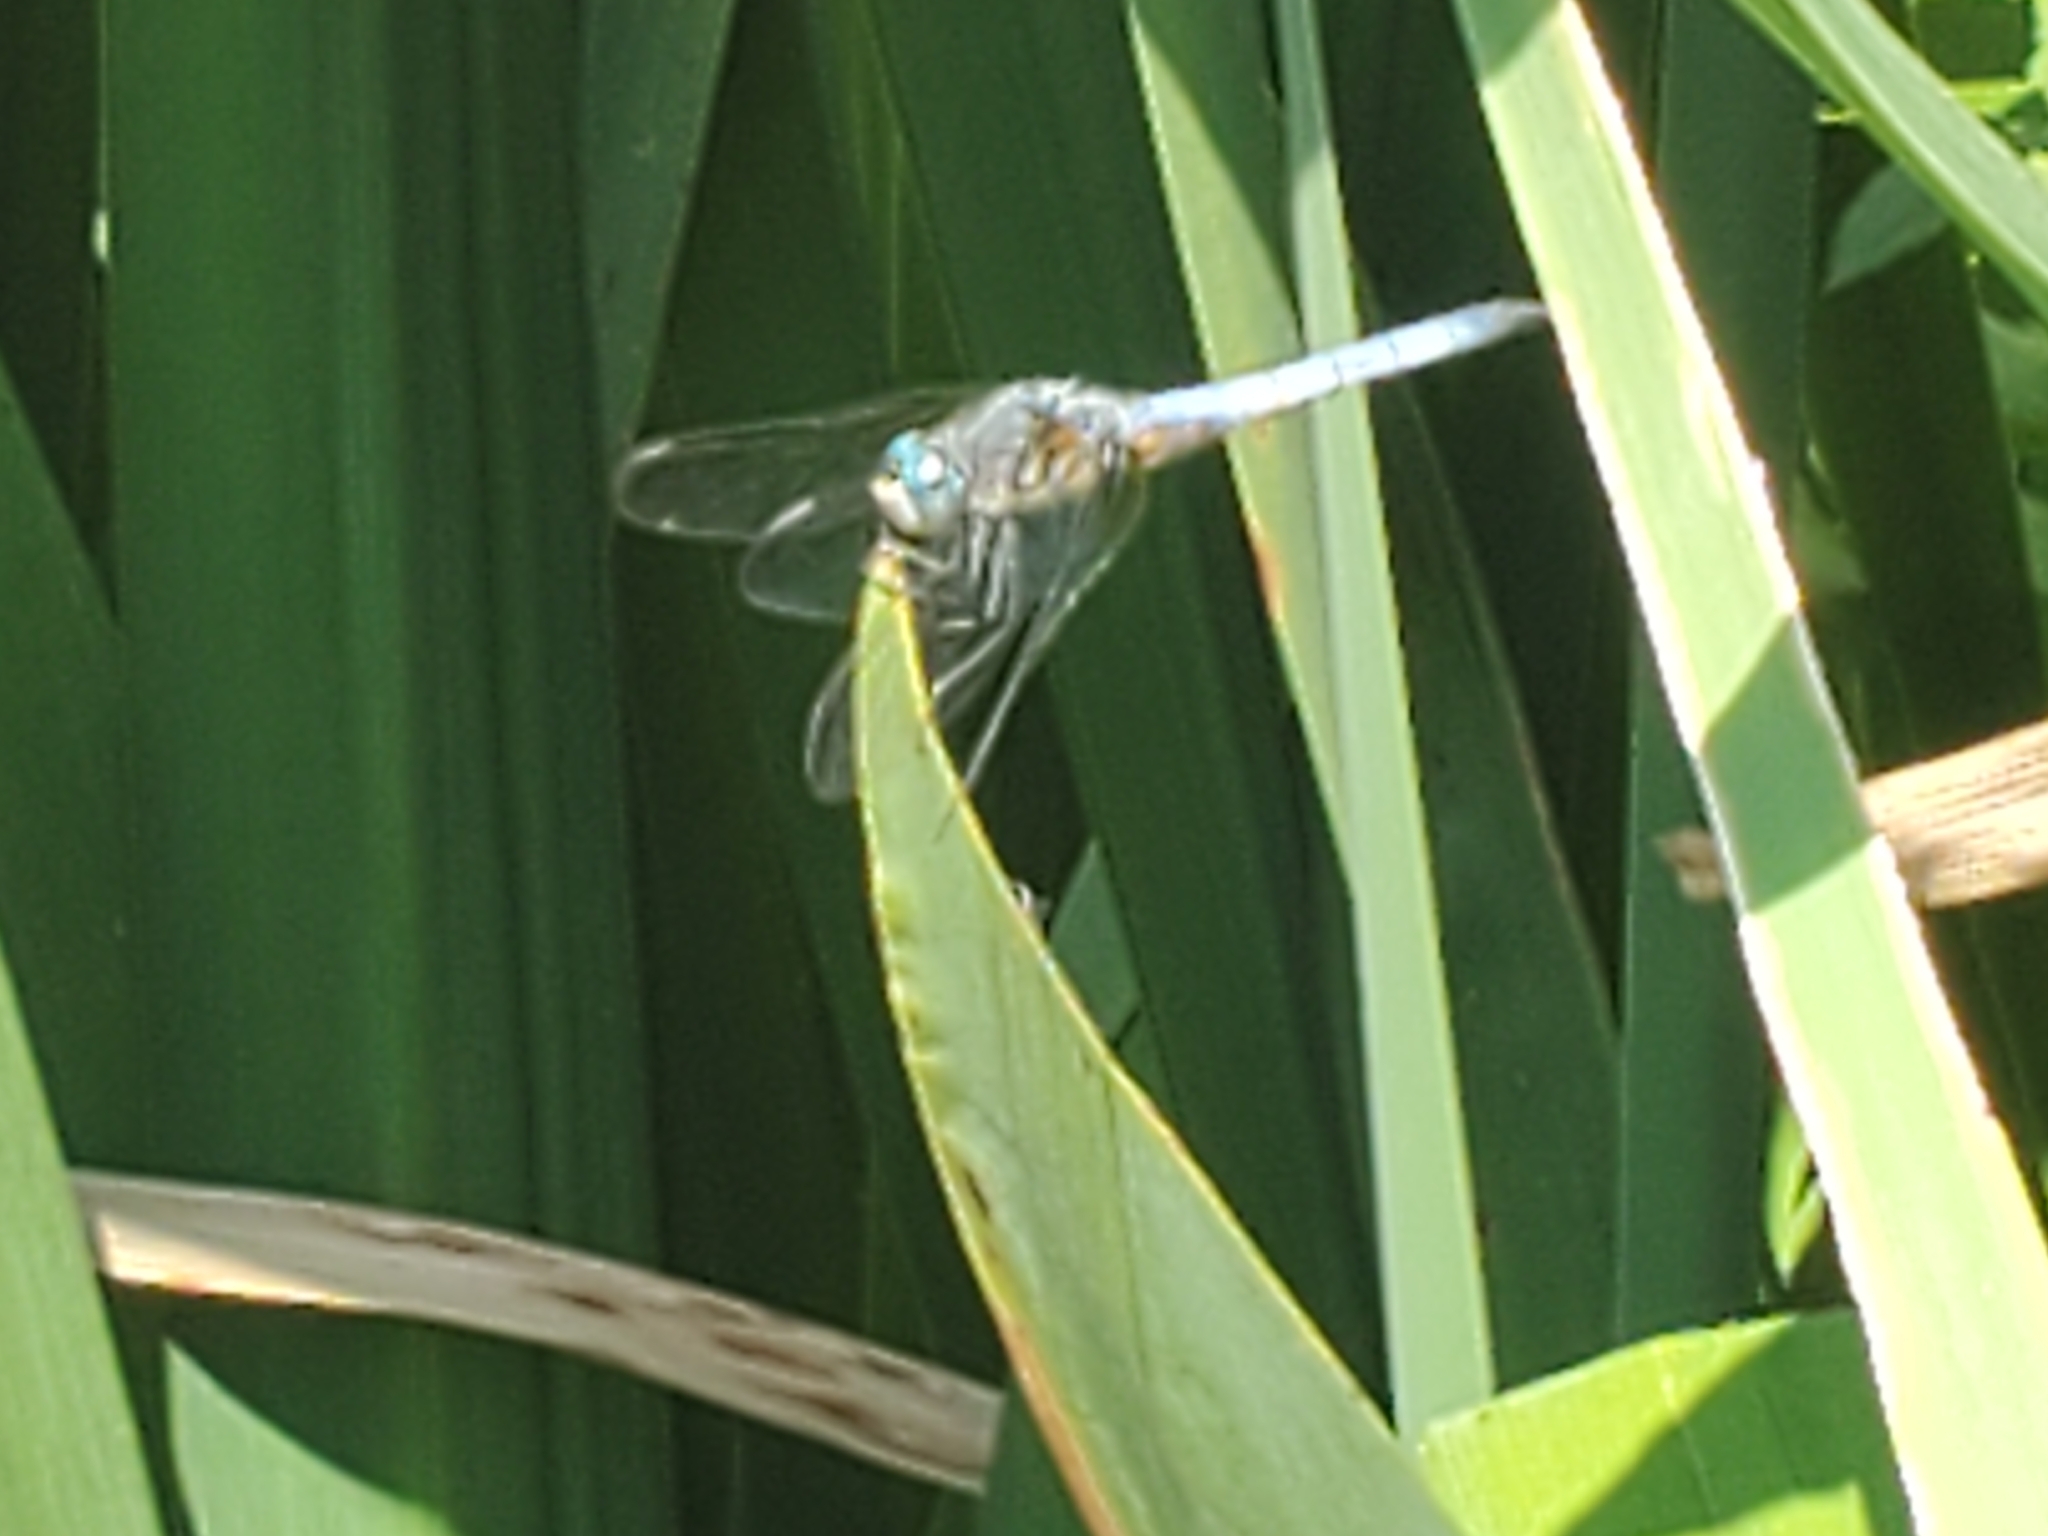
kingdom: Animalia
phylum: Arthropoda
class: Insecta
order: Odonata
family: Libellulidae
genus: Pachydiplax
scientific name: Pachydiplax longipennis
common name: Blue dasher
